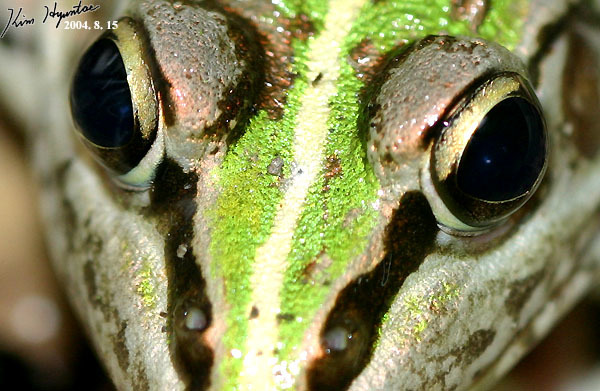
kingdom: Animalia
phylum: Chordata
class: Amphibia
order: Anura
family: Ranidae
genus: Pelophylax
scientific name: Pelophylax nigromaculatus
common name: Black-spotted pond frog
